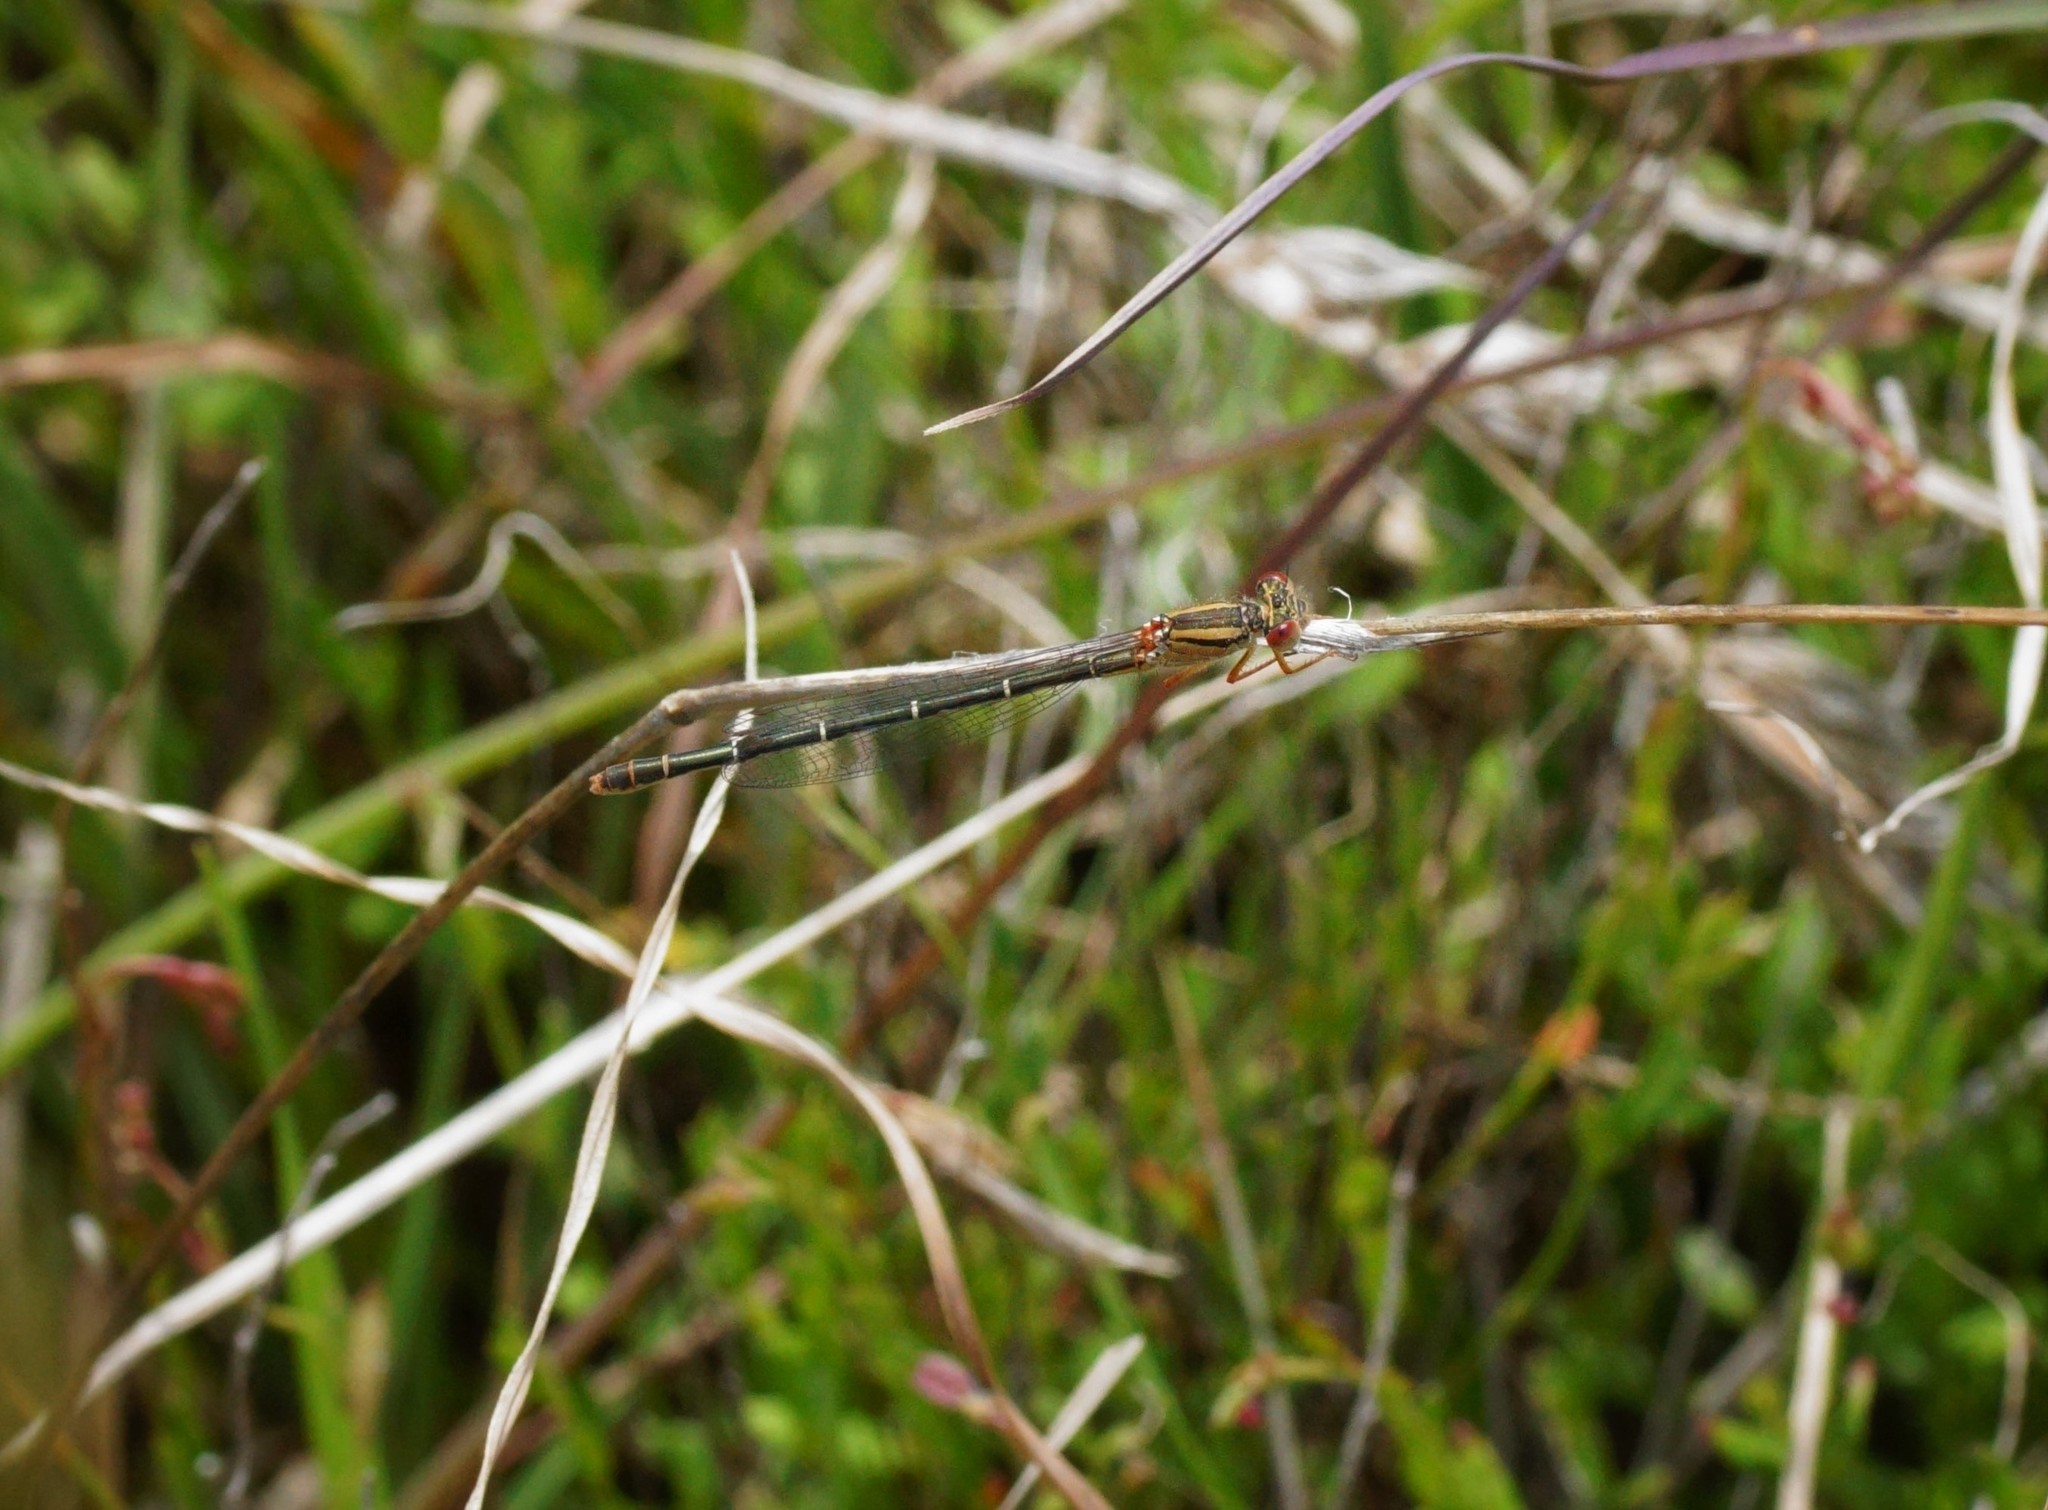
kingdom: Animalia
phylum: Arthropoda
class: Insecta
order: Odonata
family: Coenagrionidae
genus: Xanthagrion
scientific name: Xanthagrion erythroneurum
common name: Red and blue damsel
